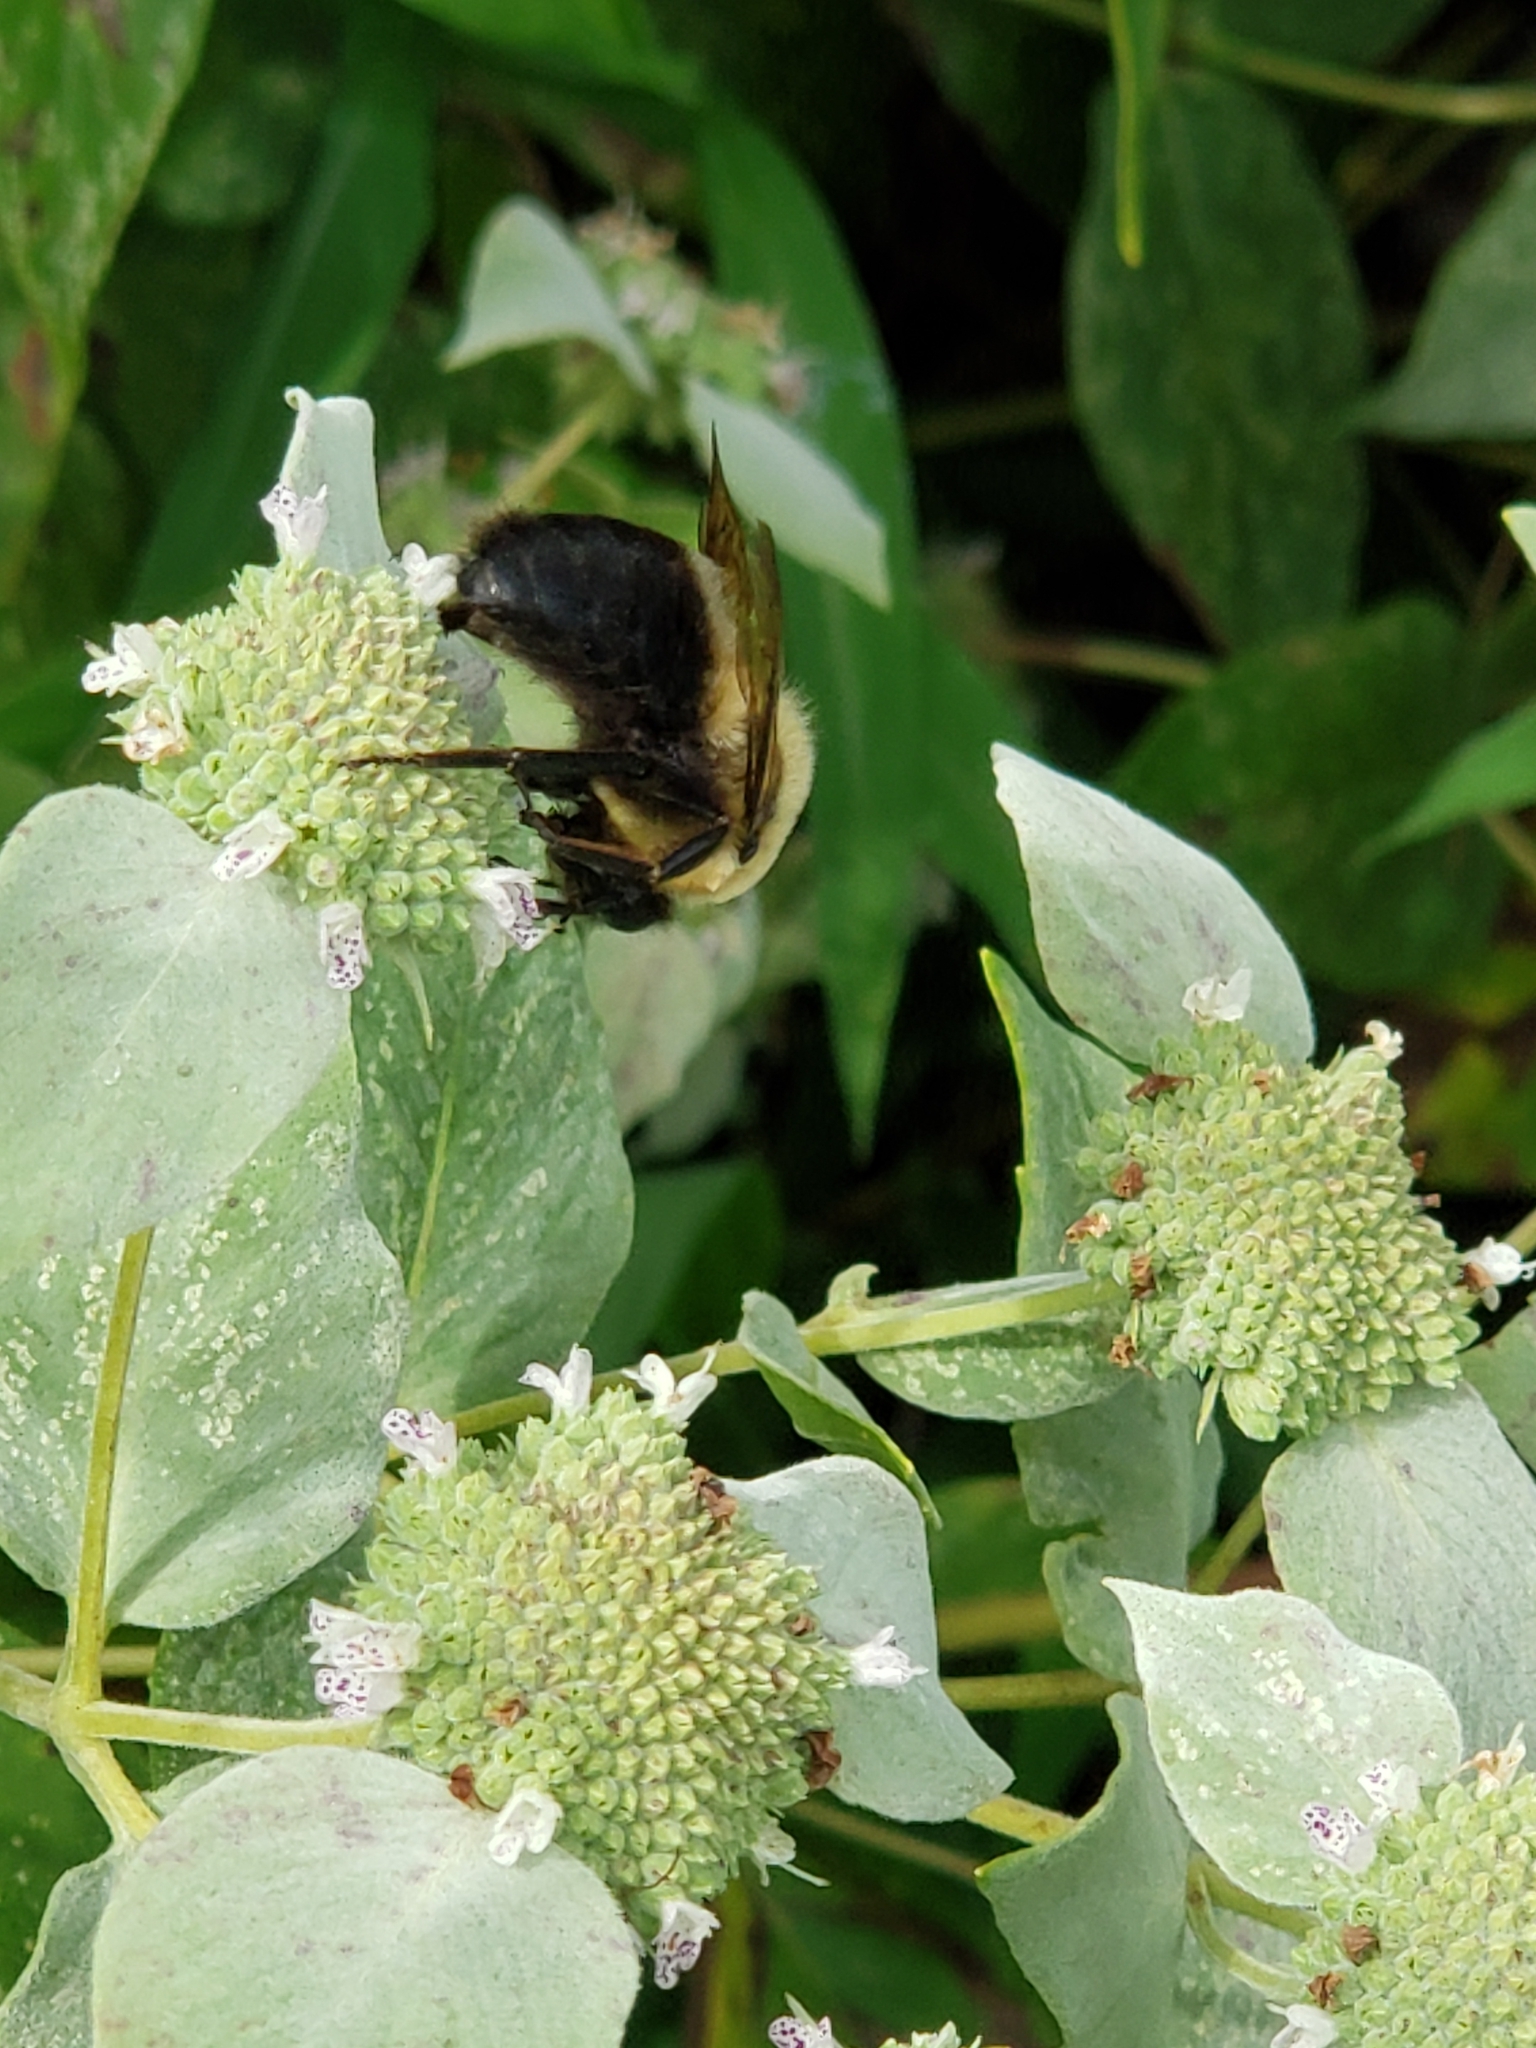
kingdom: Animalia
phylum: Arthropoda
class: Insecta
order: Hymenoptera
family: Apidae
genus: Bombus
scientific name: Bombus griseocollis
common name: Brown-belted bumble bee
